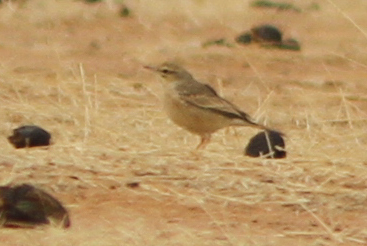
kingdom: Animalia
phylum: Chordata
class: Aves
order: Passeriformes
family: Motacillidae
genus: Anthus
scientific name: Anthus campestris
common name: Tawny pipit
